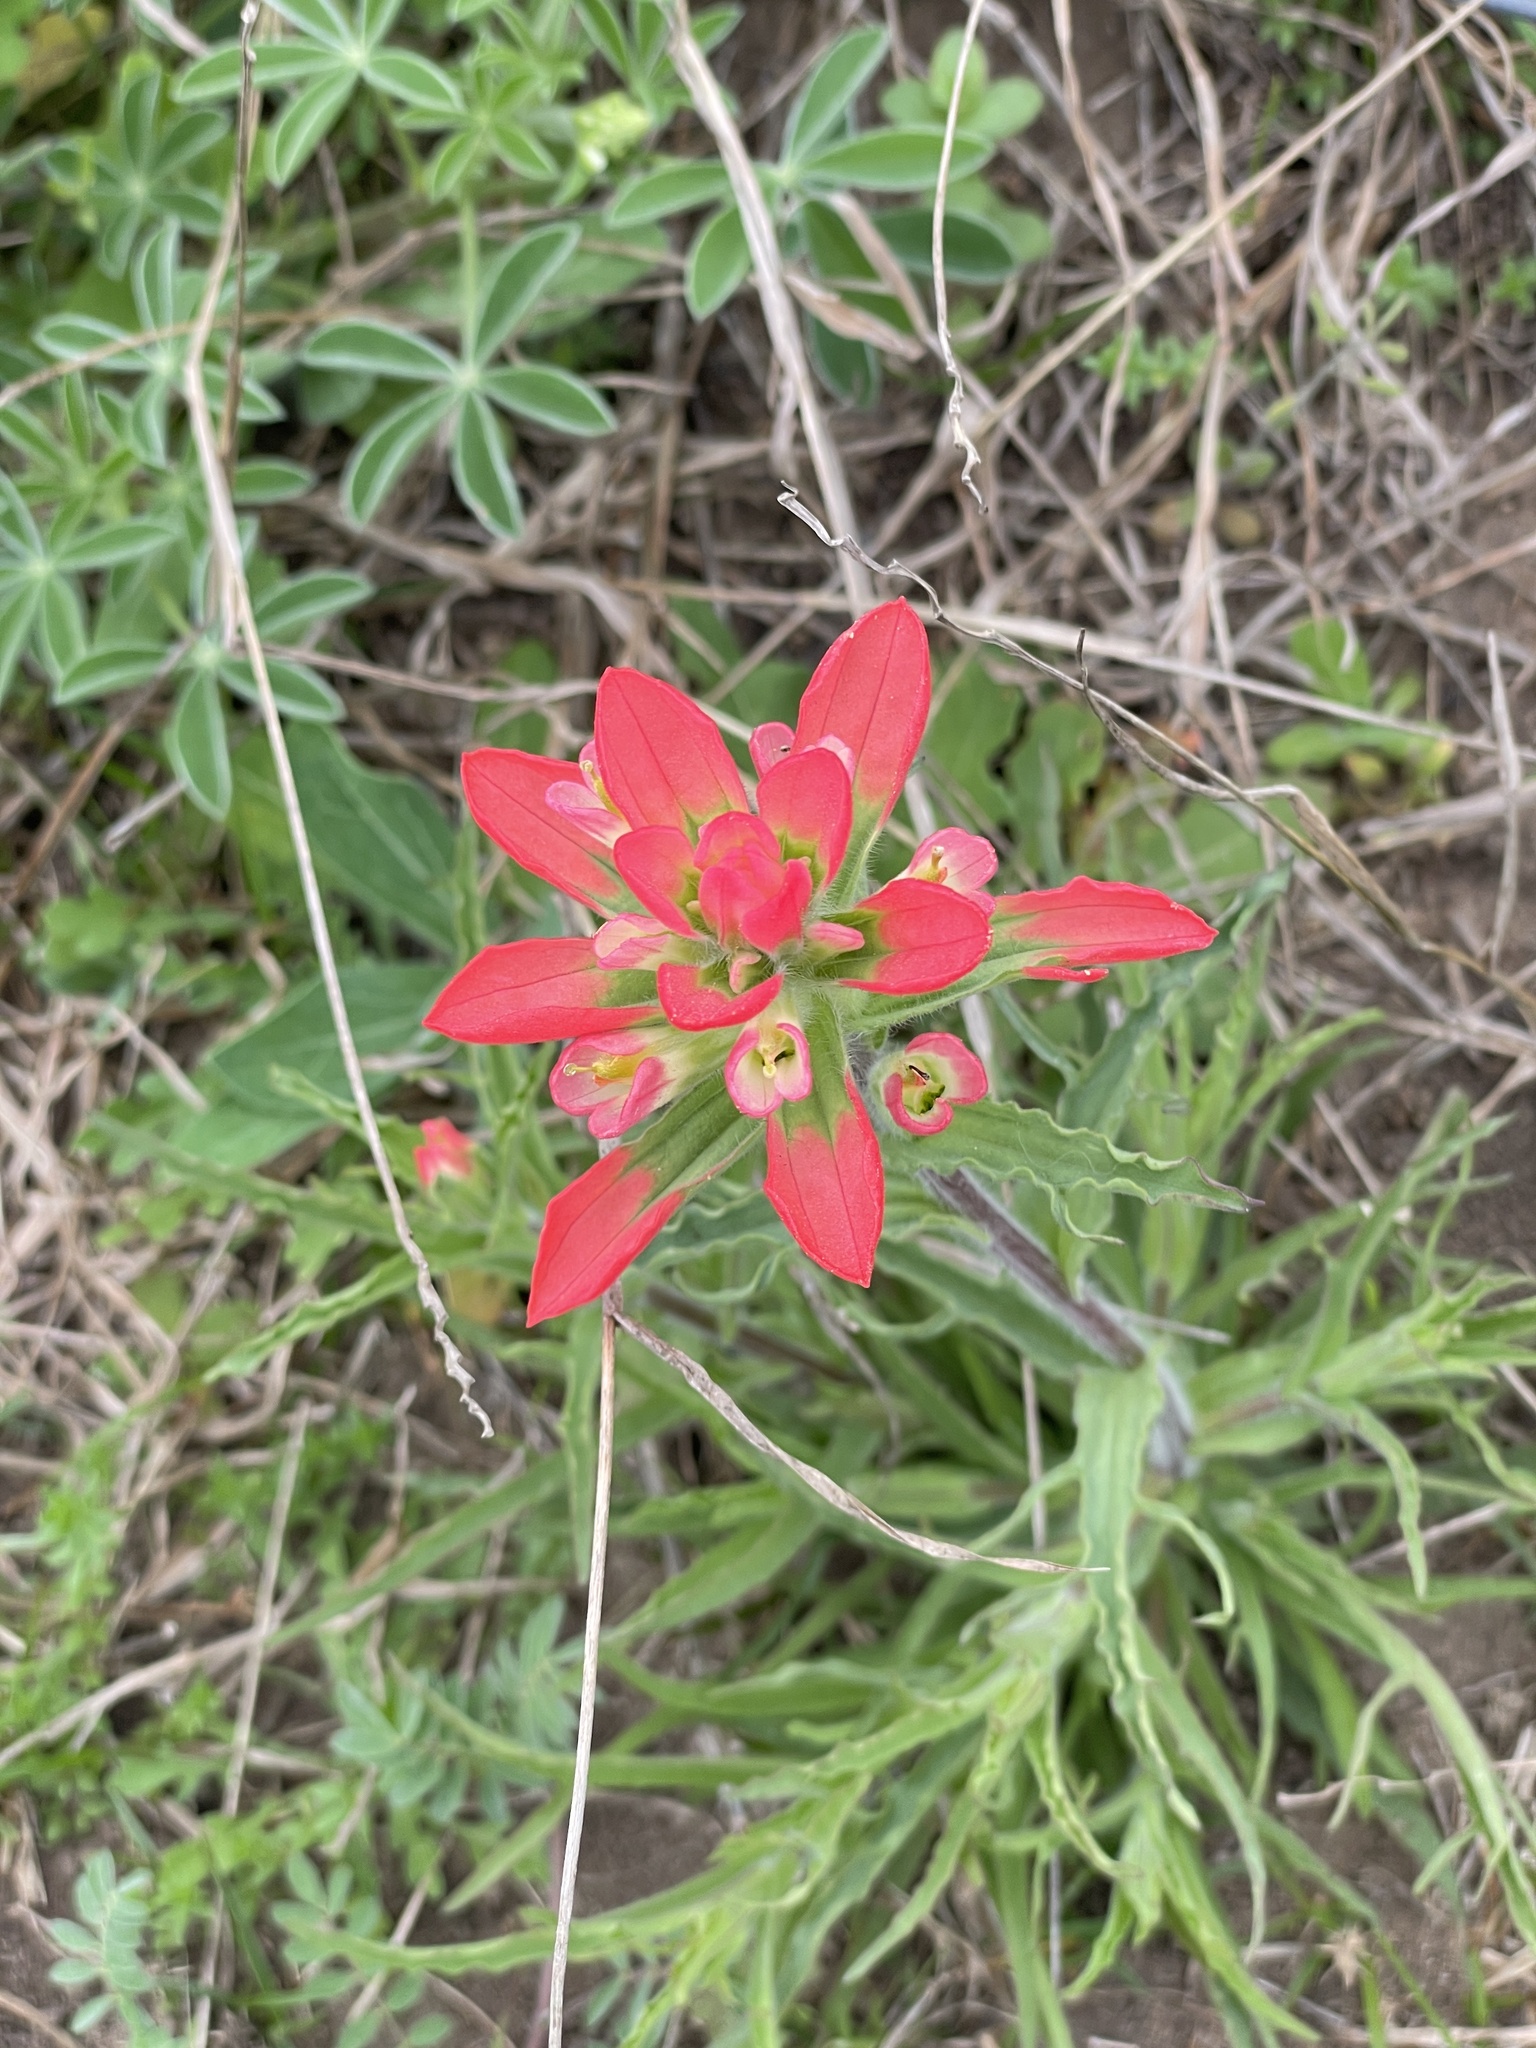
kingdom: Plantae
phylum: Tracheophyta
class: Magnoliopsida
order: Lamiales
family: Orobanchaceae
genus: Castilleja
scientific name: Castilleja indivisa
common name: Texas paintbrush
